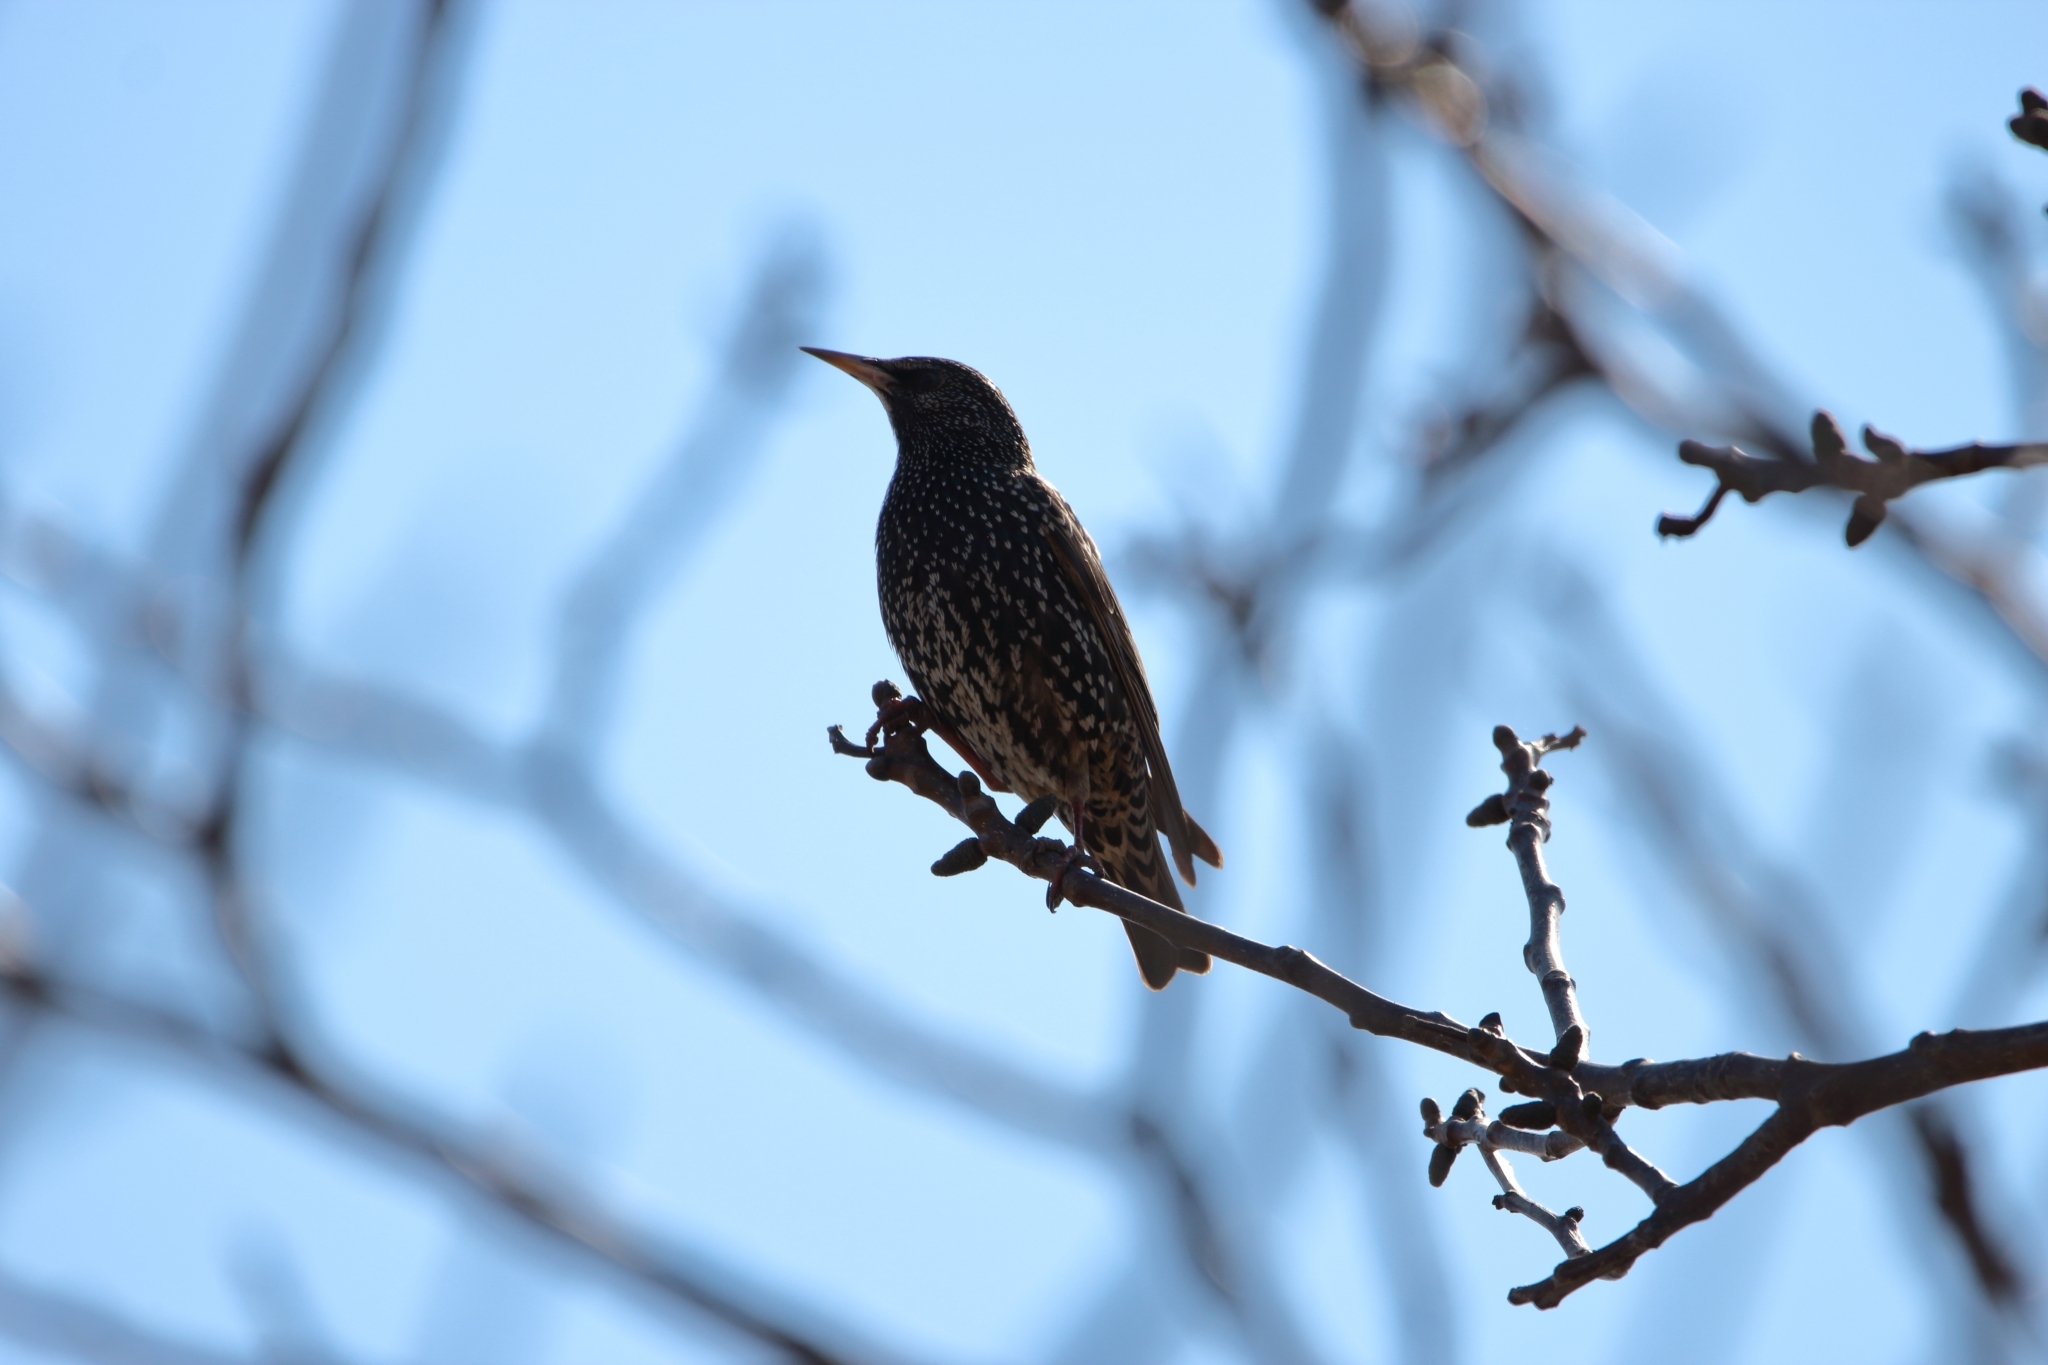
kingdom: Animalia
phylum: Chordata
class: Aves
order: Passeriformes
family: Sturnidae
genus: Sturnus
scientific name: Sturnus vulgaris
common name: Common starling
